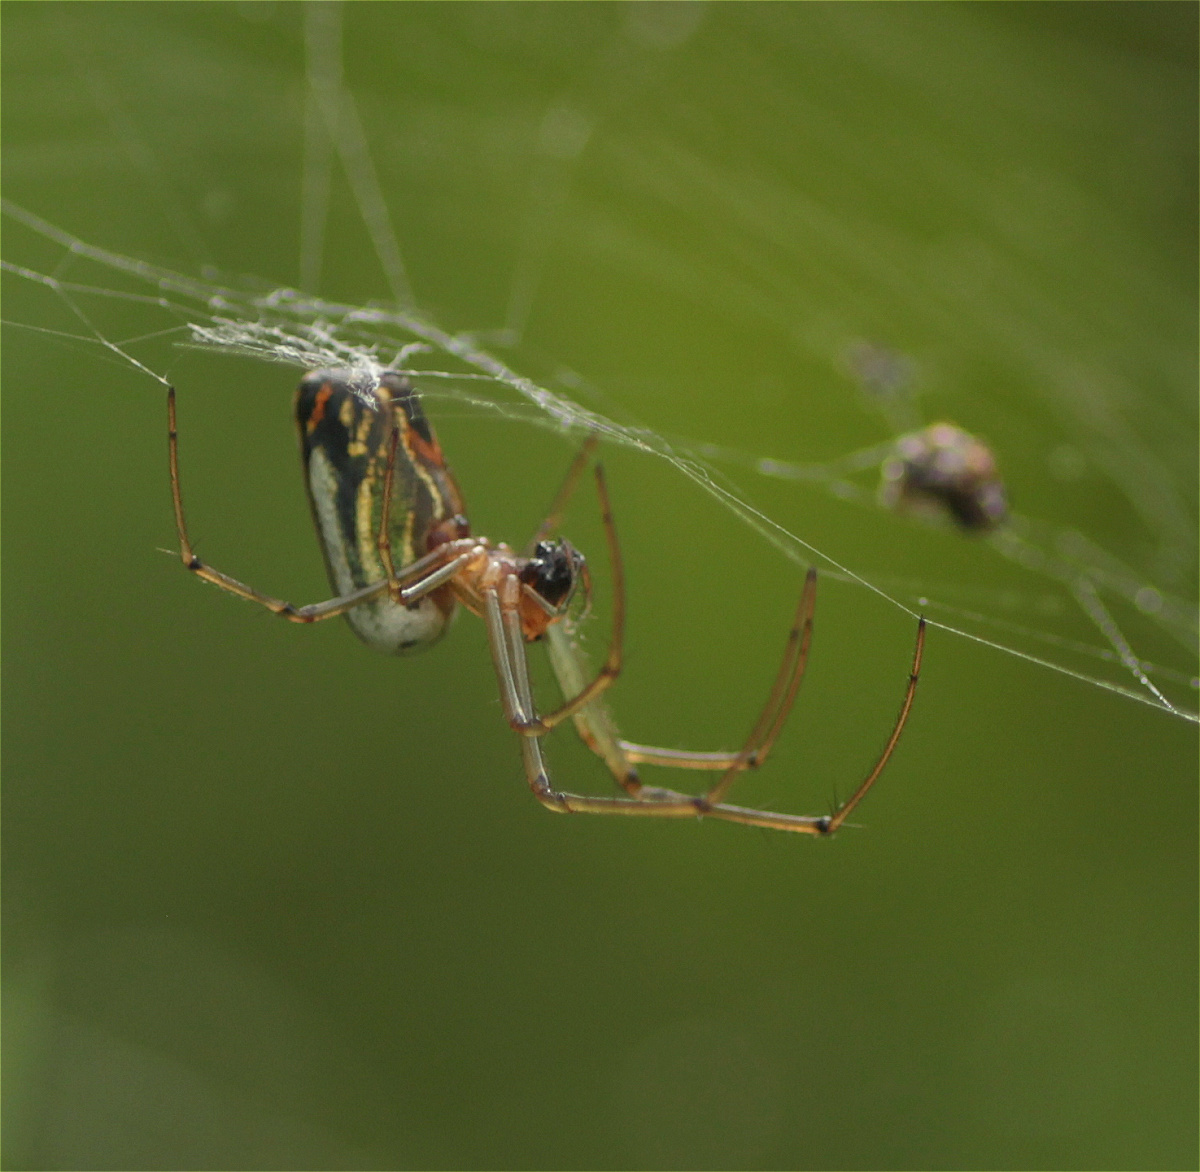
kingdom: Animalia
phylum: Arthropoda
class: Arachnida
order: Araneae
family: Tetragnathidae
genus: Leucauge
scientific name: Leucauge mariana
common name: Longjawed orb weavers
